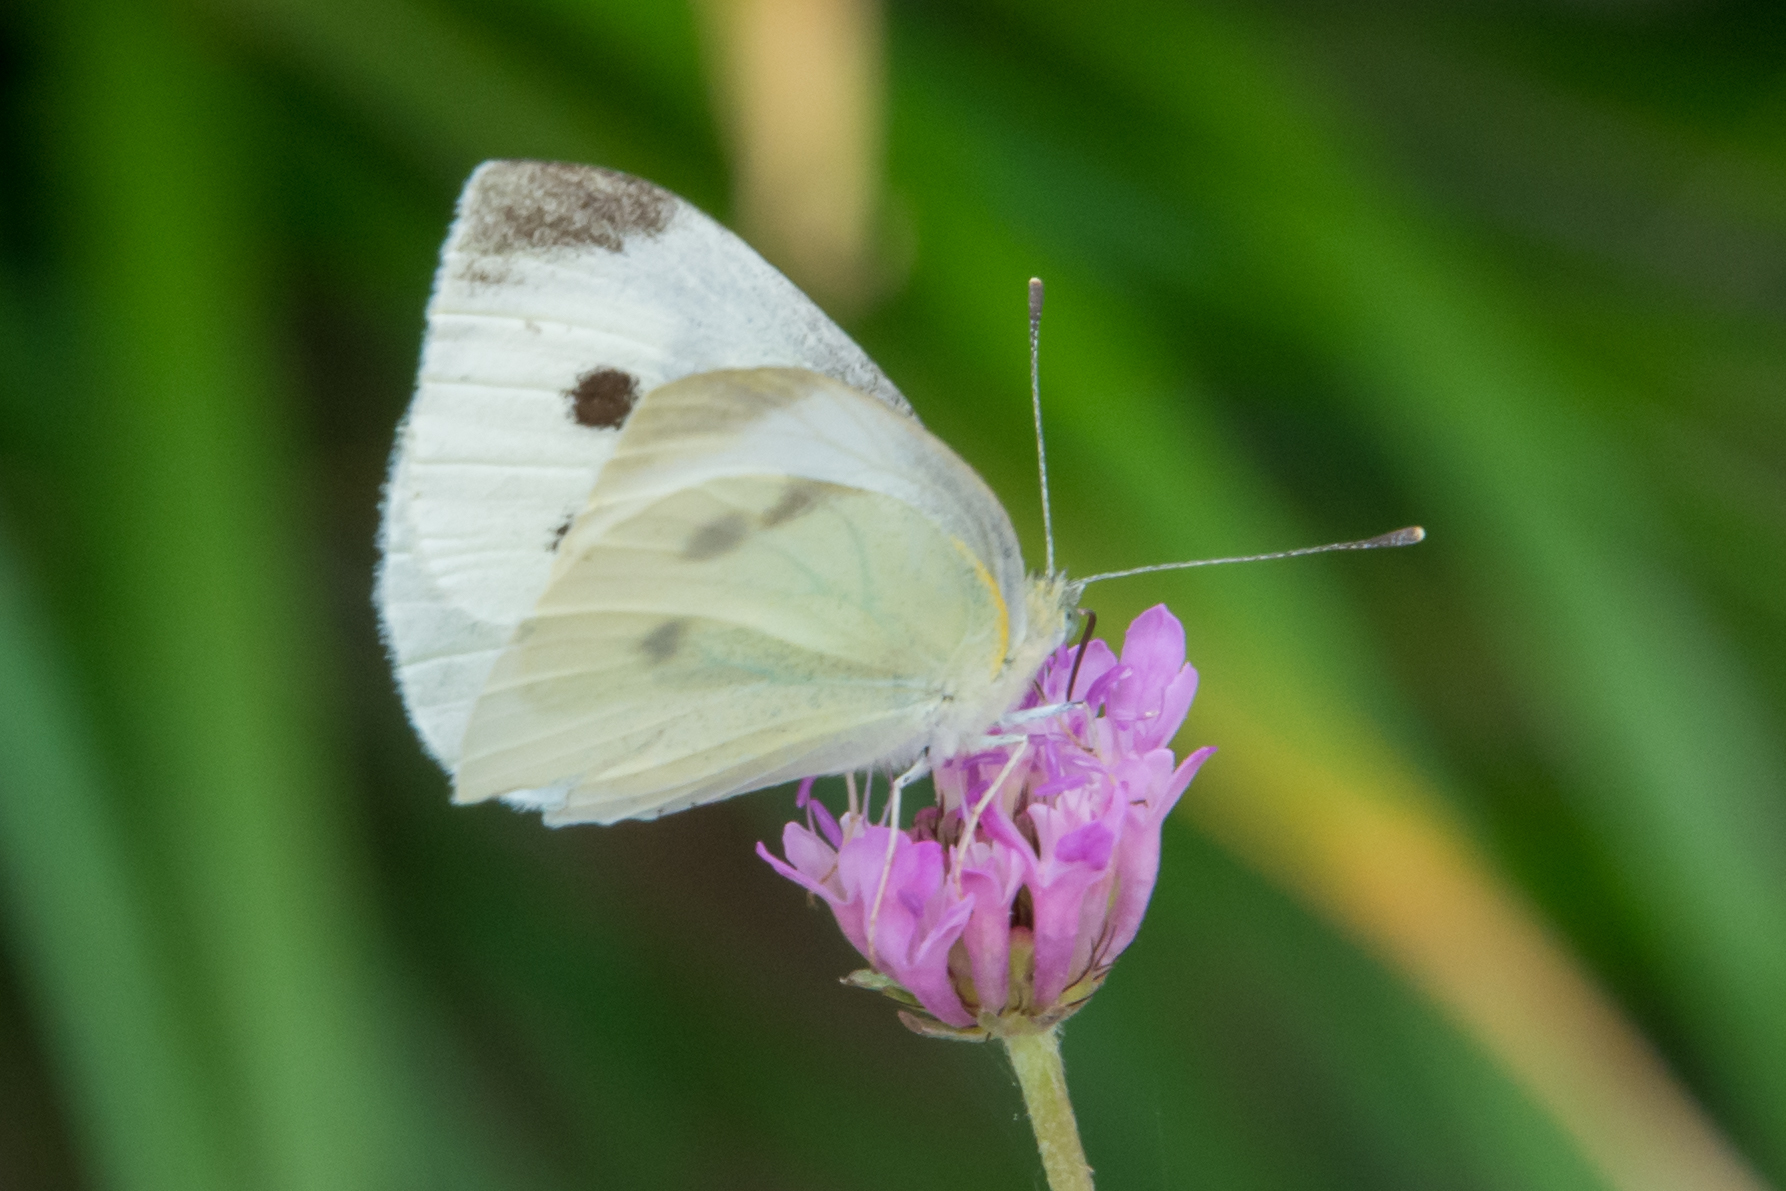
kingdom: Animalia
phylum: Arthropoda
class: Insecta
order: Lepidoptera
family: Pieridae
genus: Pieris
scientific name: Pieris rapae
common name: Small white
